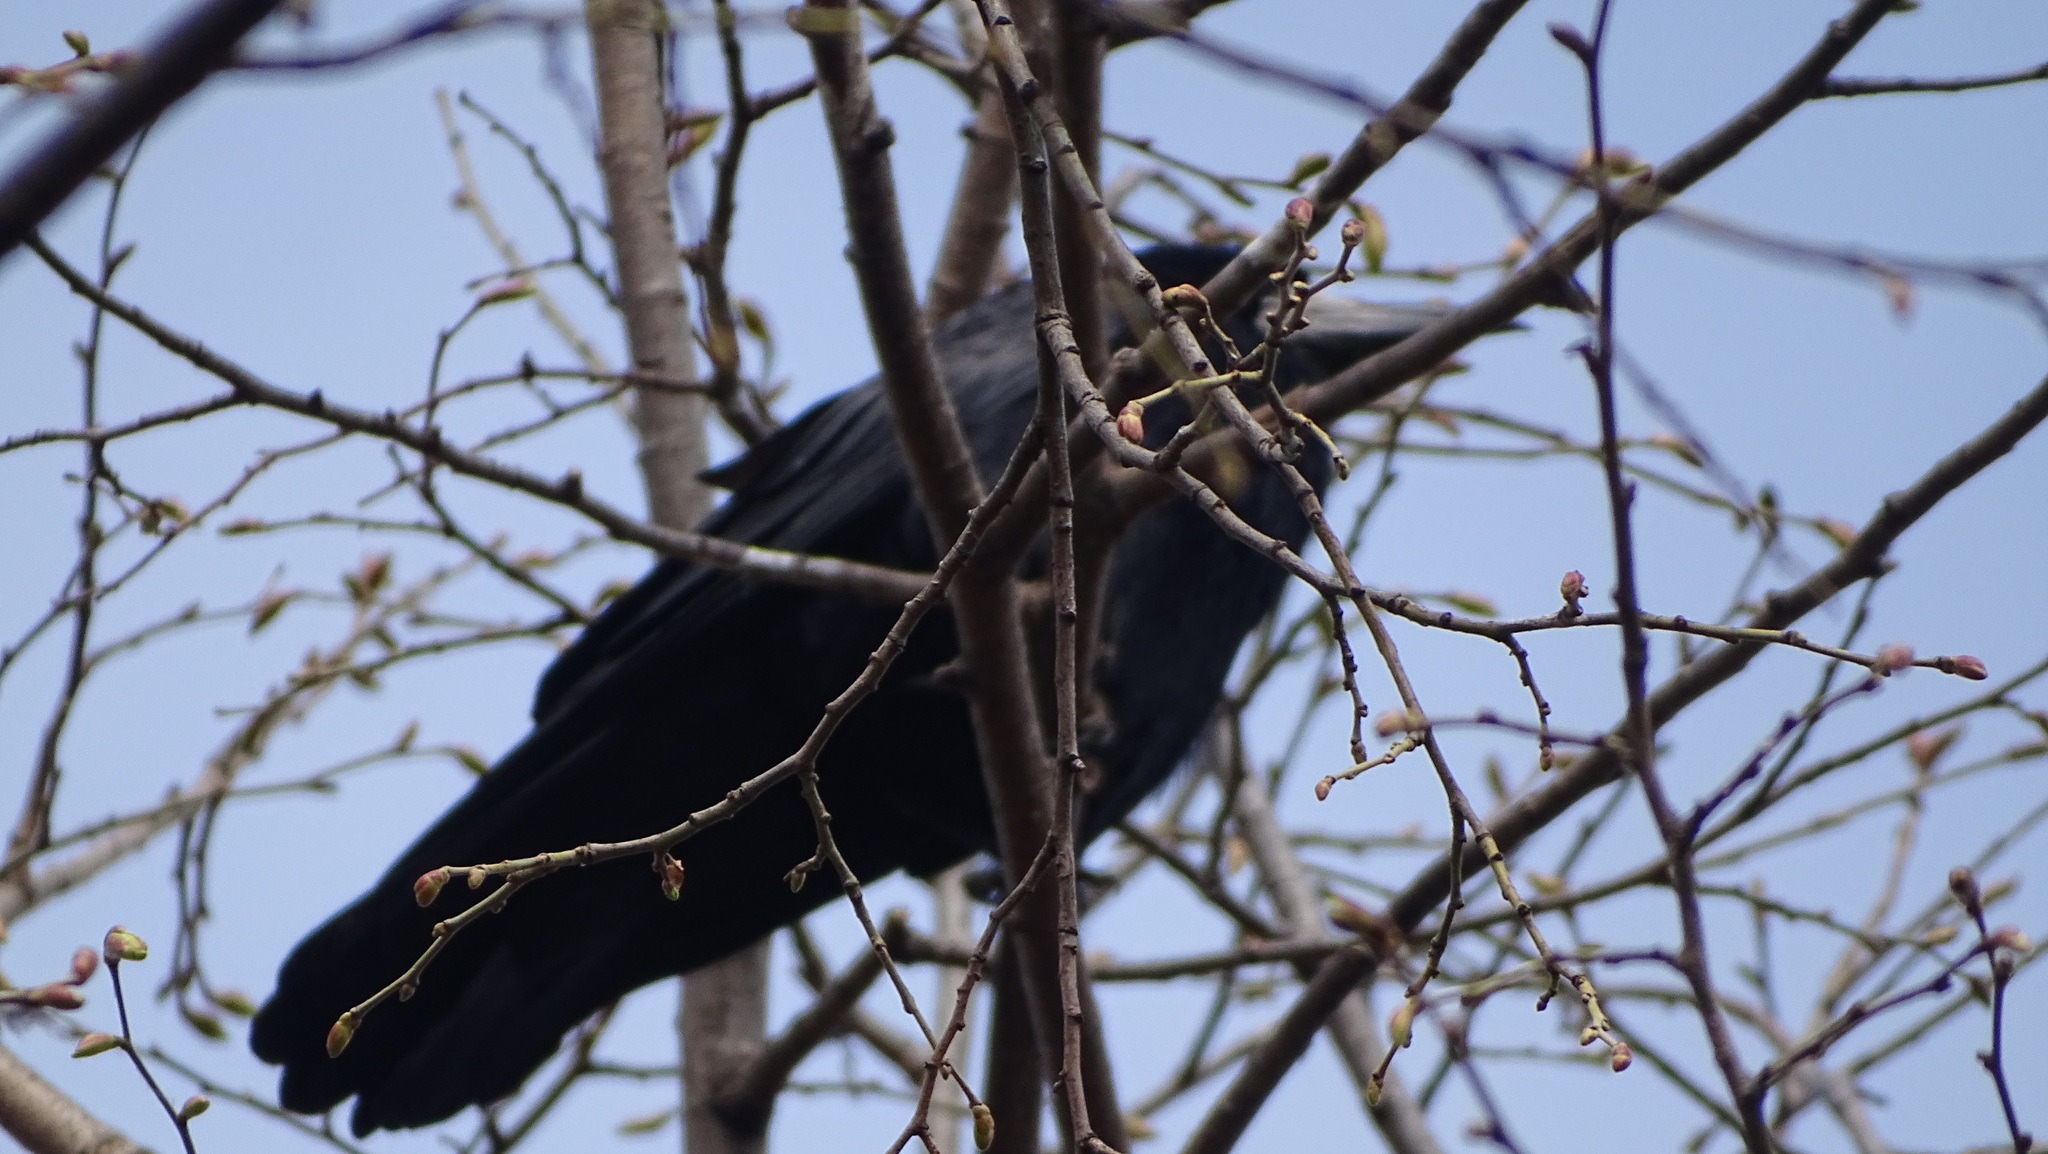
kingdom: Animalia
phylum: Chordata
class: Aves
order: Passeriformes
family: Corvidae
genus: Corvus
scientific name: Corvus frugilegus
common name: Rook
